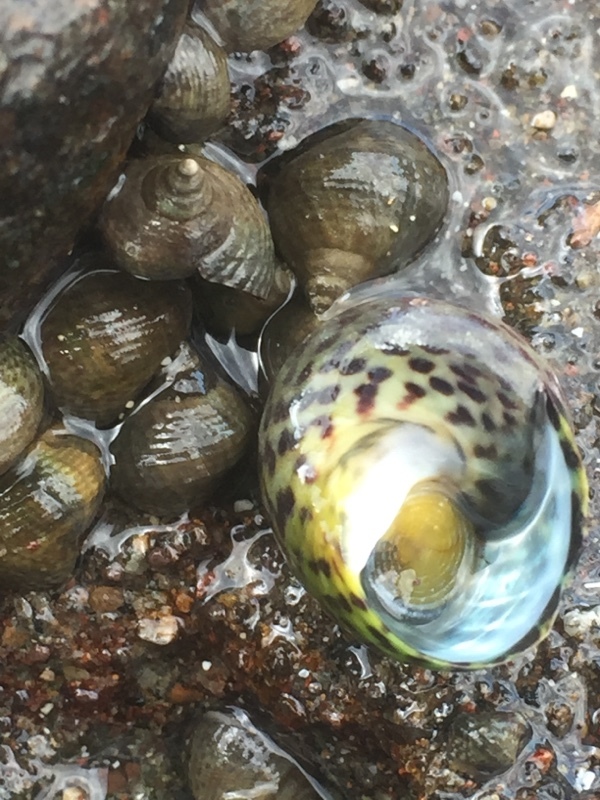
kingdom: Animalia
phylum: Mollusca
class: Gastropoda
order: Littorinimorpha
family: Littorinidae
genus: Tectarius
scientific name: Tectarius striatus
